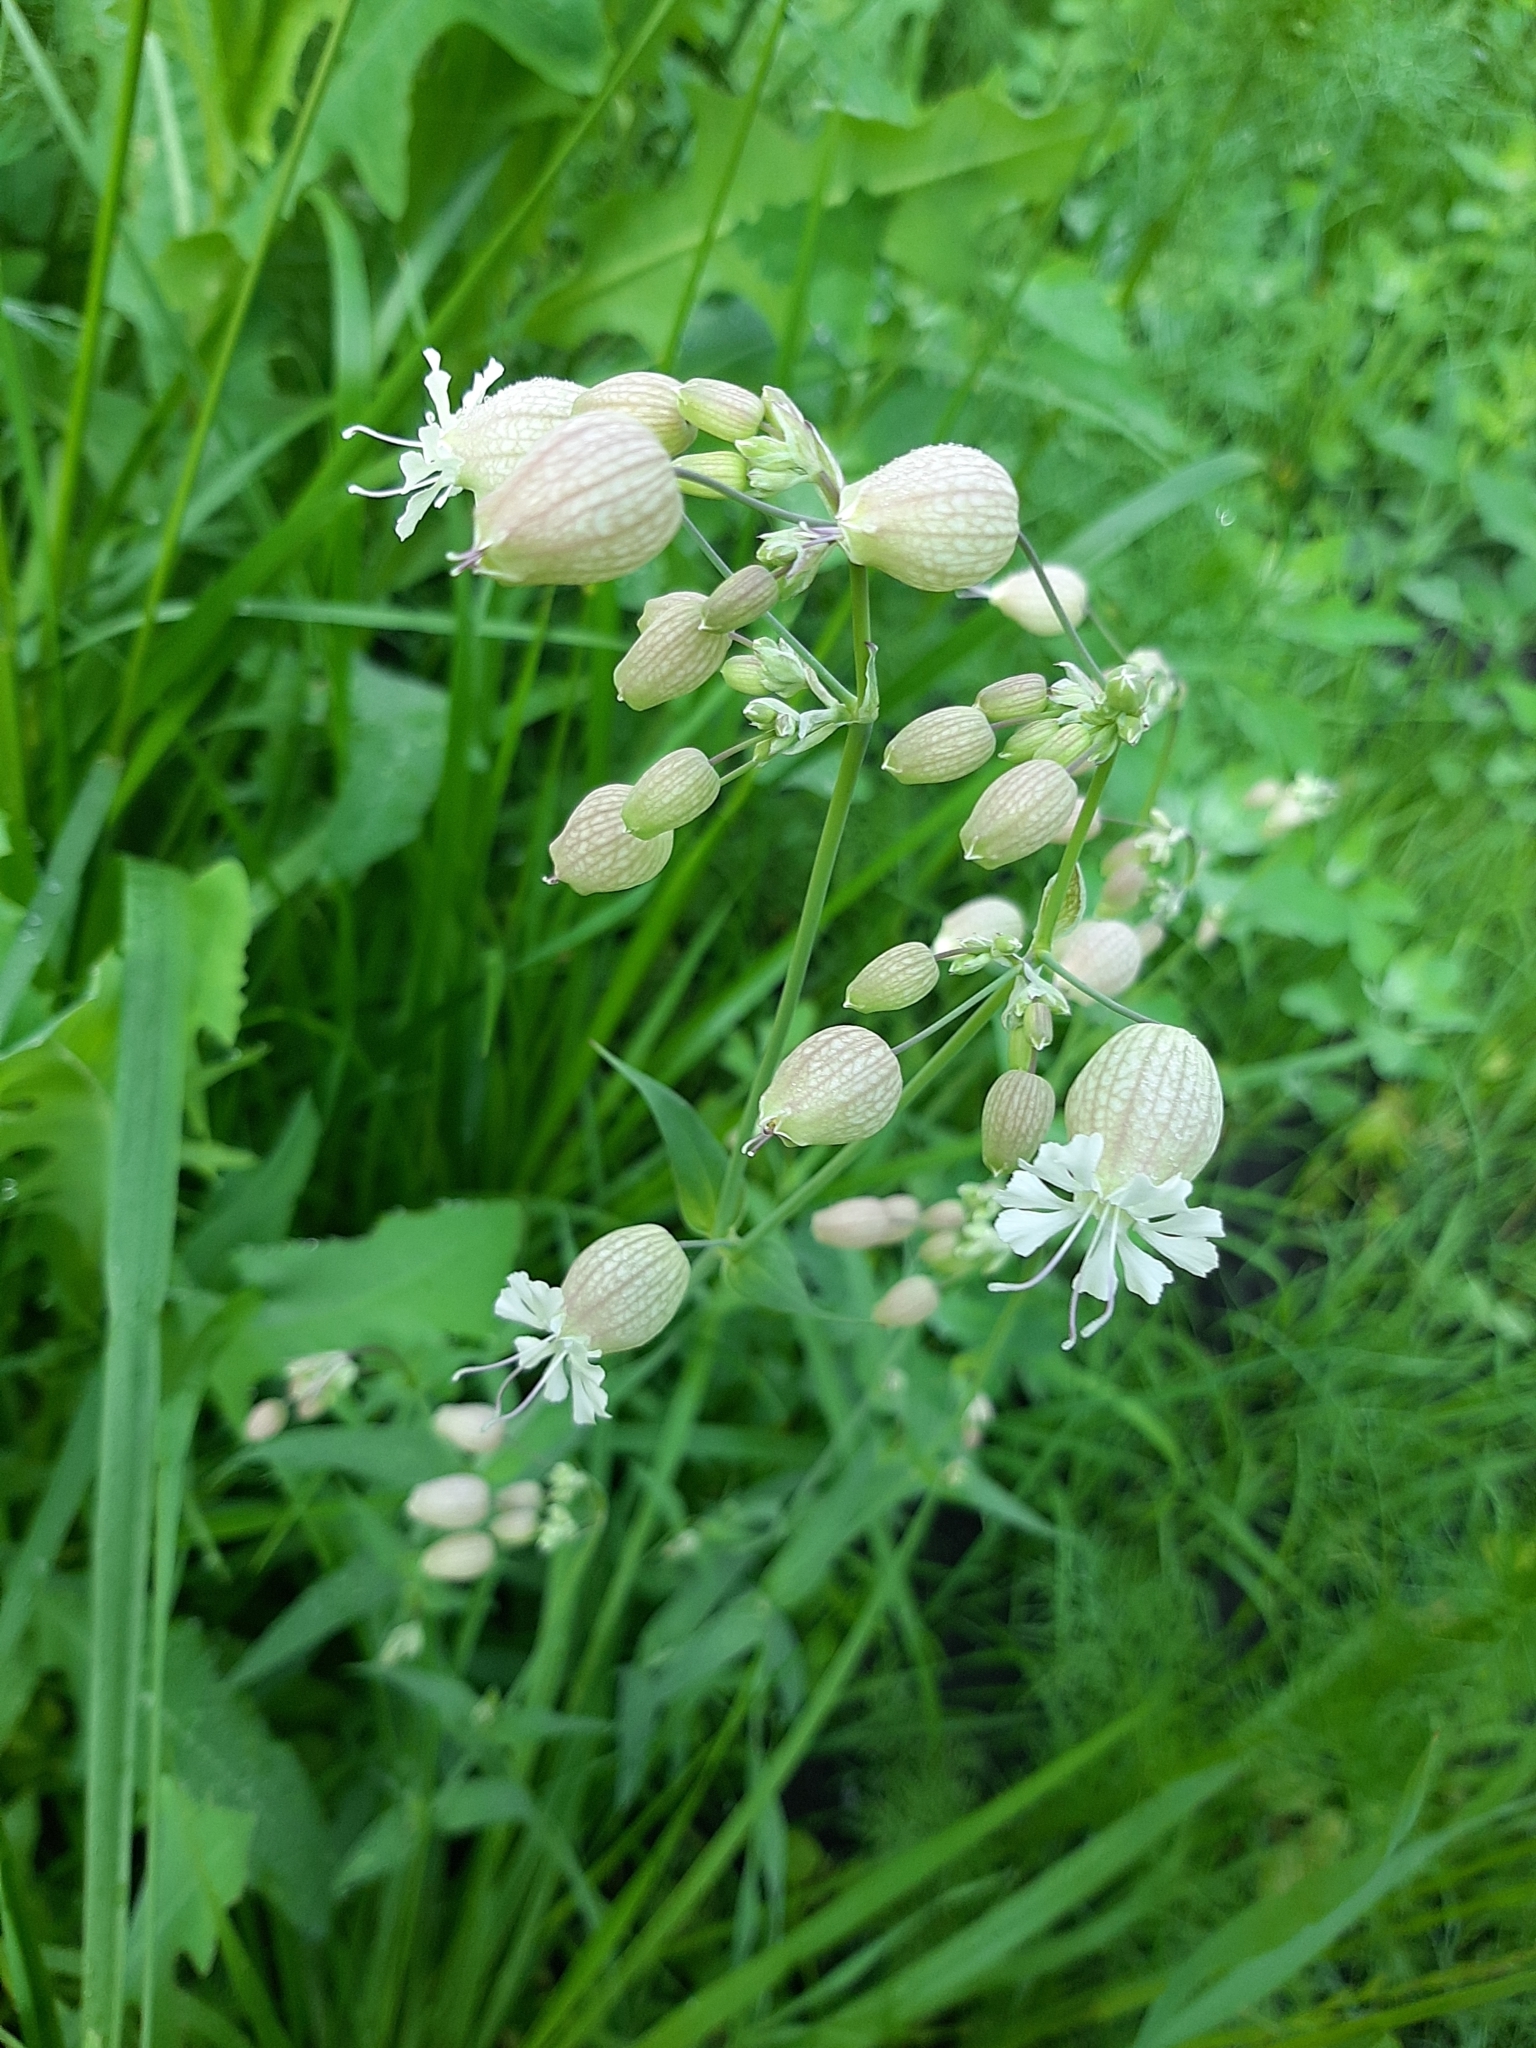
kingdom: Plantae
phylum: Tracheophyta
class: Magnoliopsida
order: Caryophyllales
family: Caryophyllaceae
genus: Silene
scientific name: Silene vulgaris
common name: Bladder campion
